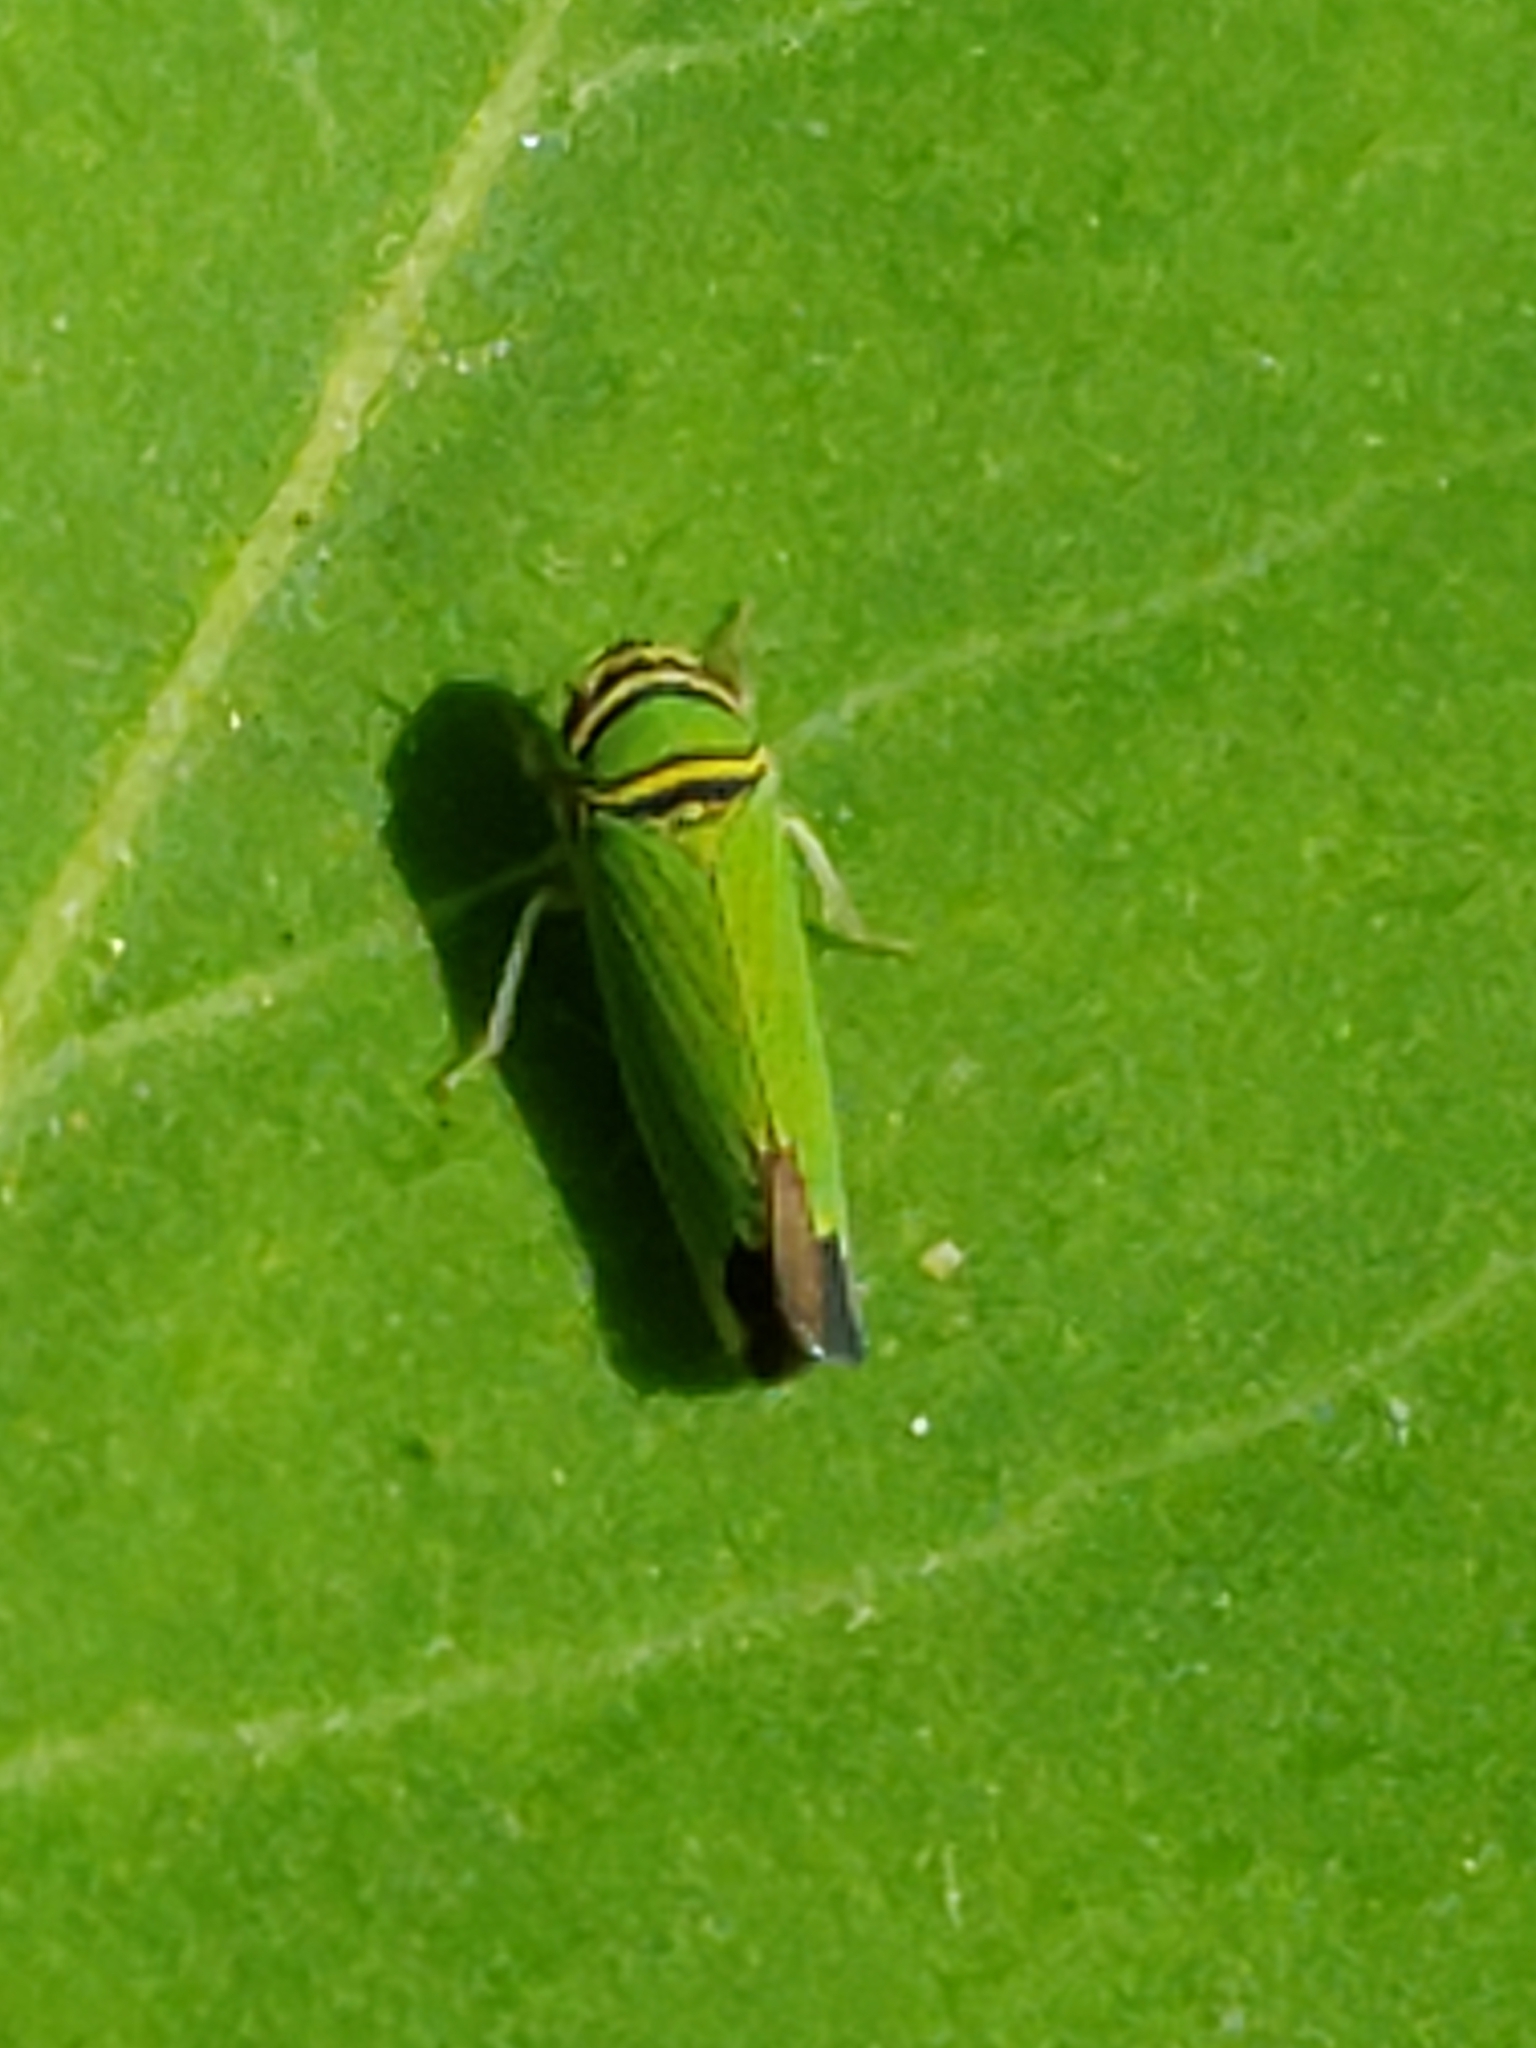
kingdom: Animalia
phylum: Arthropoda
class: Insecta
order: Hemiptera
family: Cicadellidae
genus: Tylozygus
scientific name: Tylozygus geometricus
